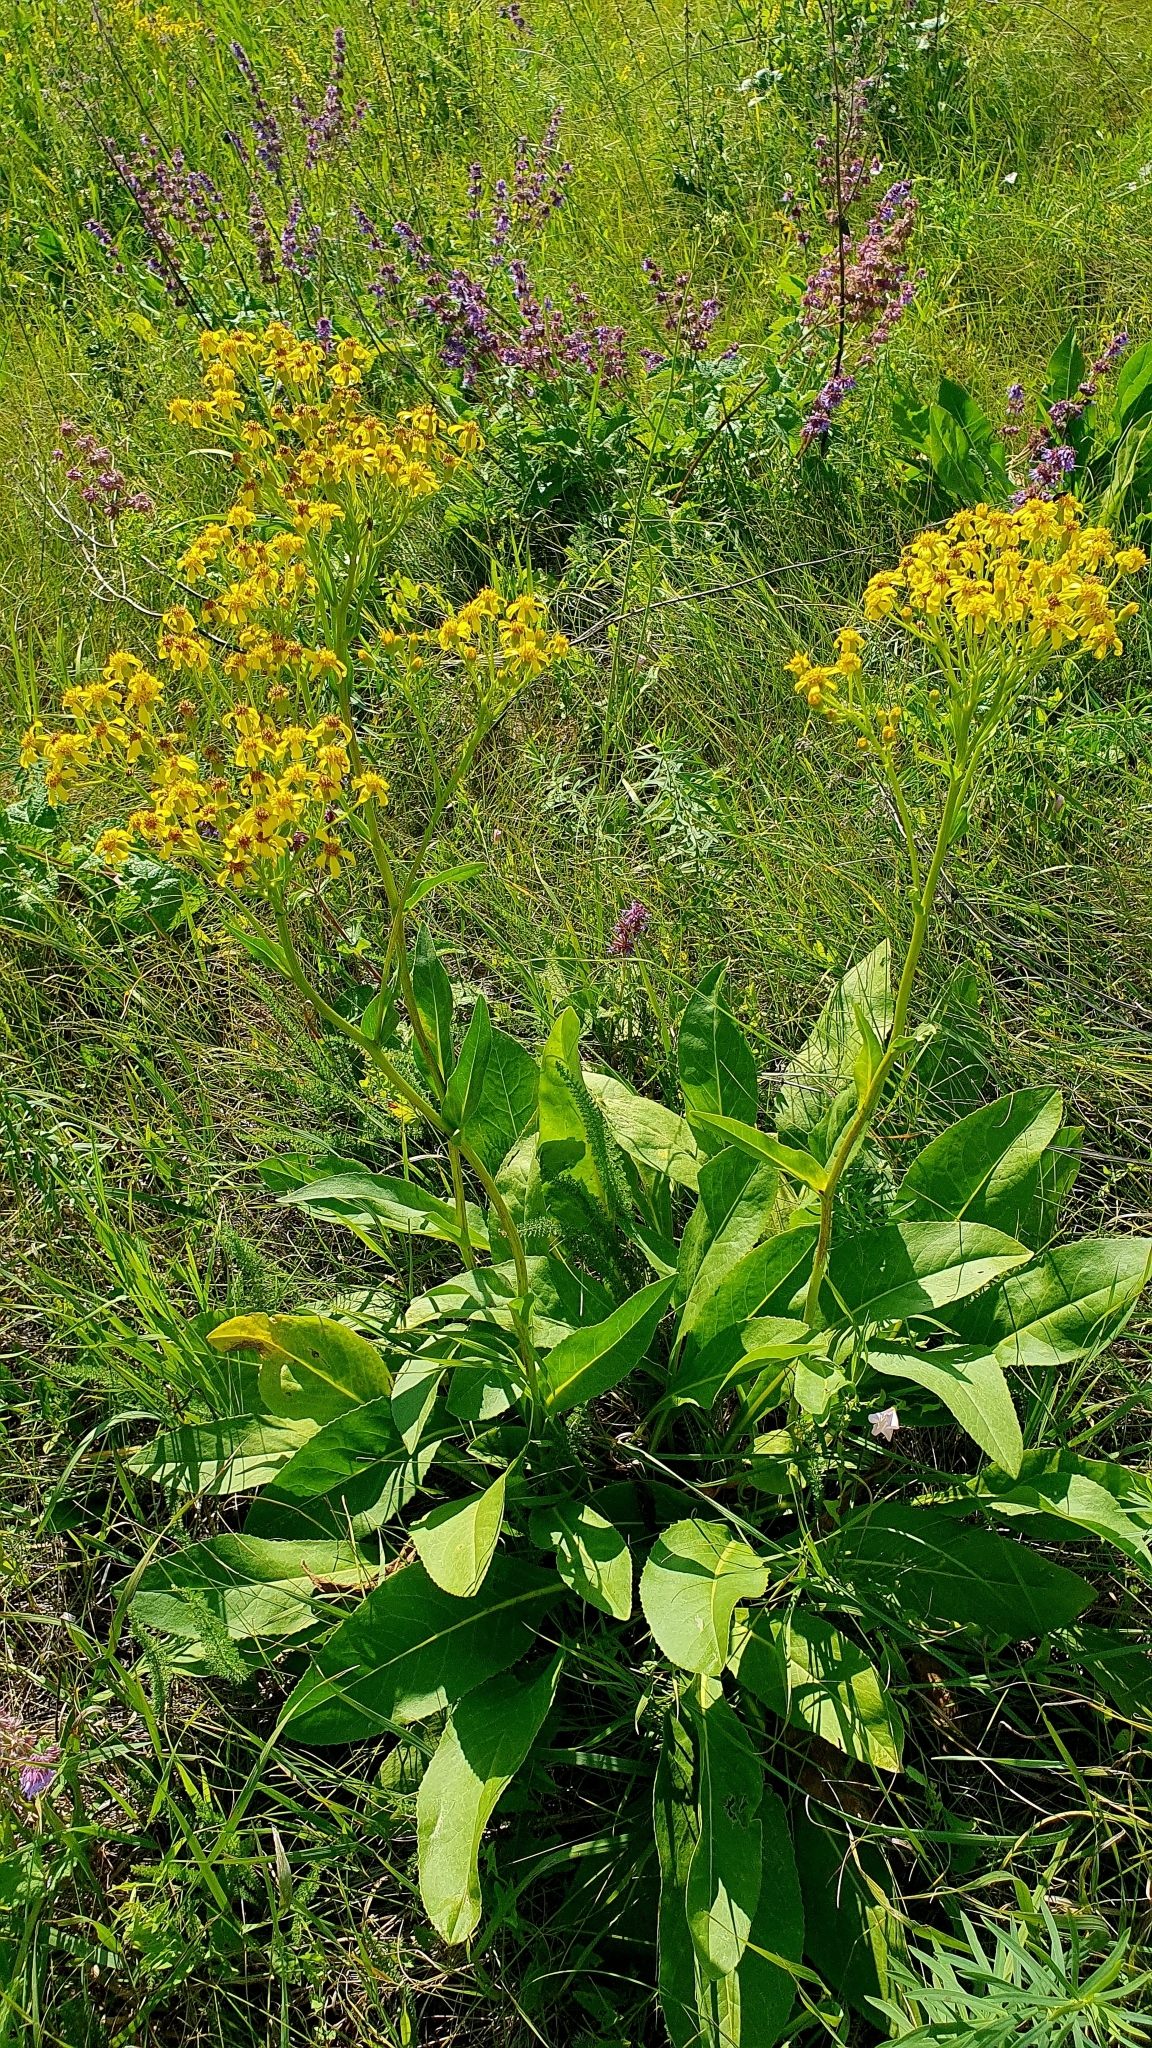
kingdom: Plantae
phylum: Tracheophyta
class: Magnoliopsida
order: Asterales
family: Asteraceae
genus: Senecio
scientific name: Senecio doria
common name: Golden ragwort
